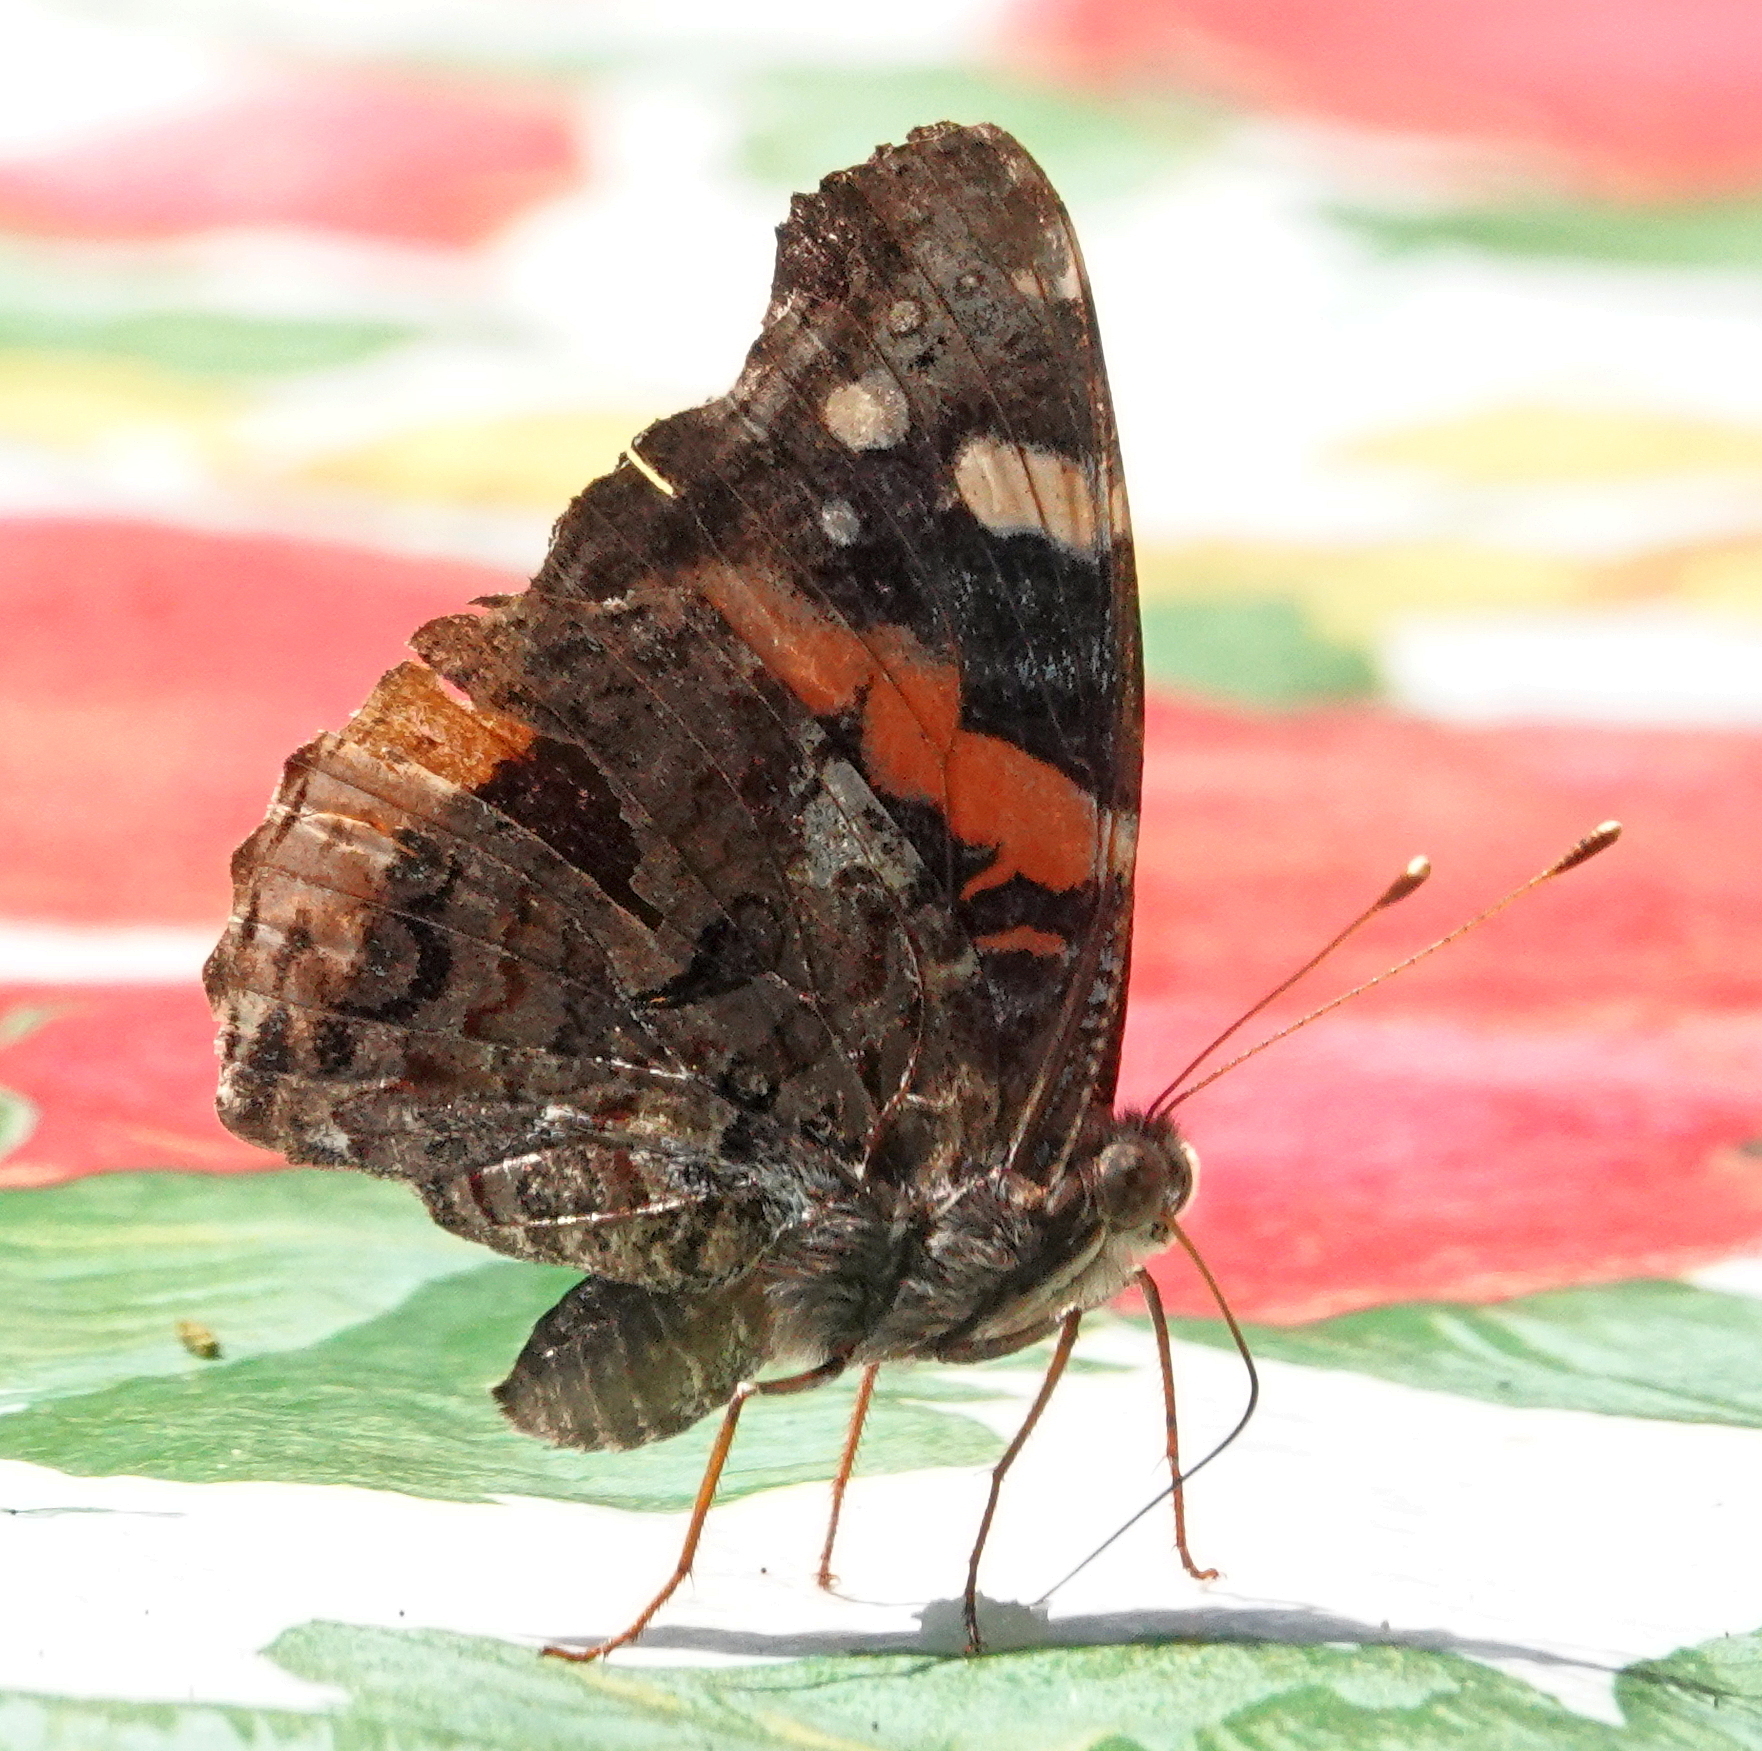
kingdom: Animalia
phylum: Arthropoda
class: Insecta
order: Lepidoptera
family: Nymphalidae
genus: Vanessa
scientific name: Vanessa atalanta
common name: Red admiral
